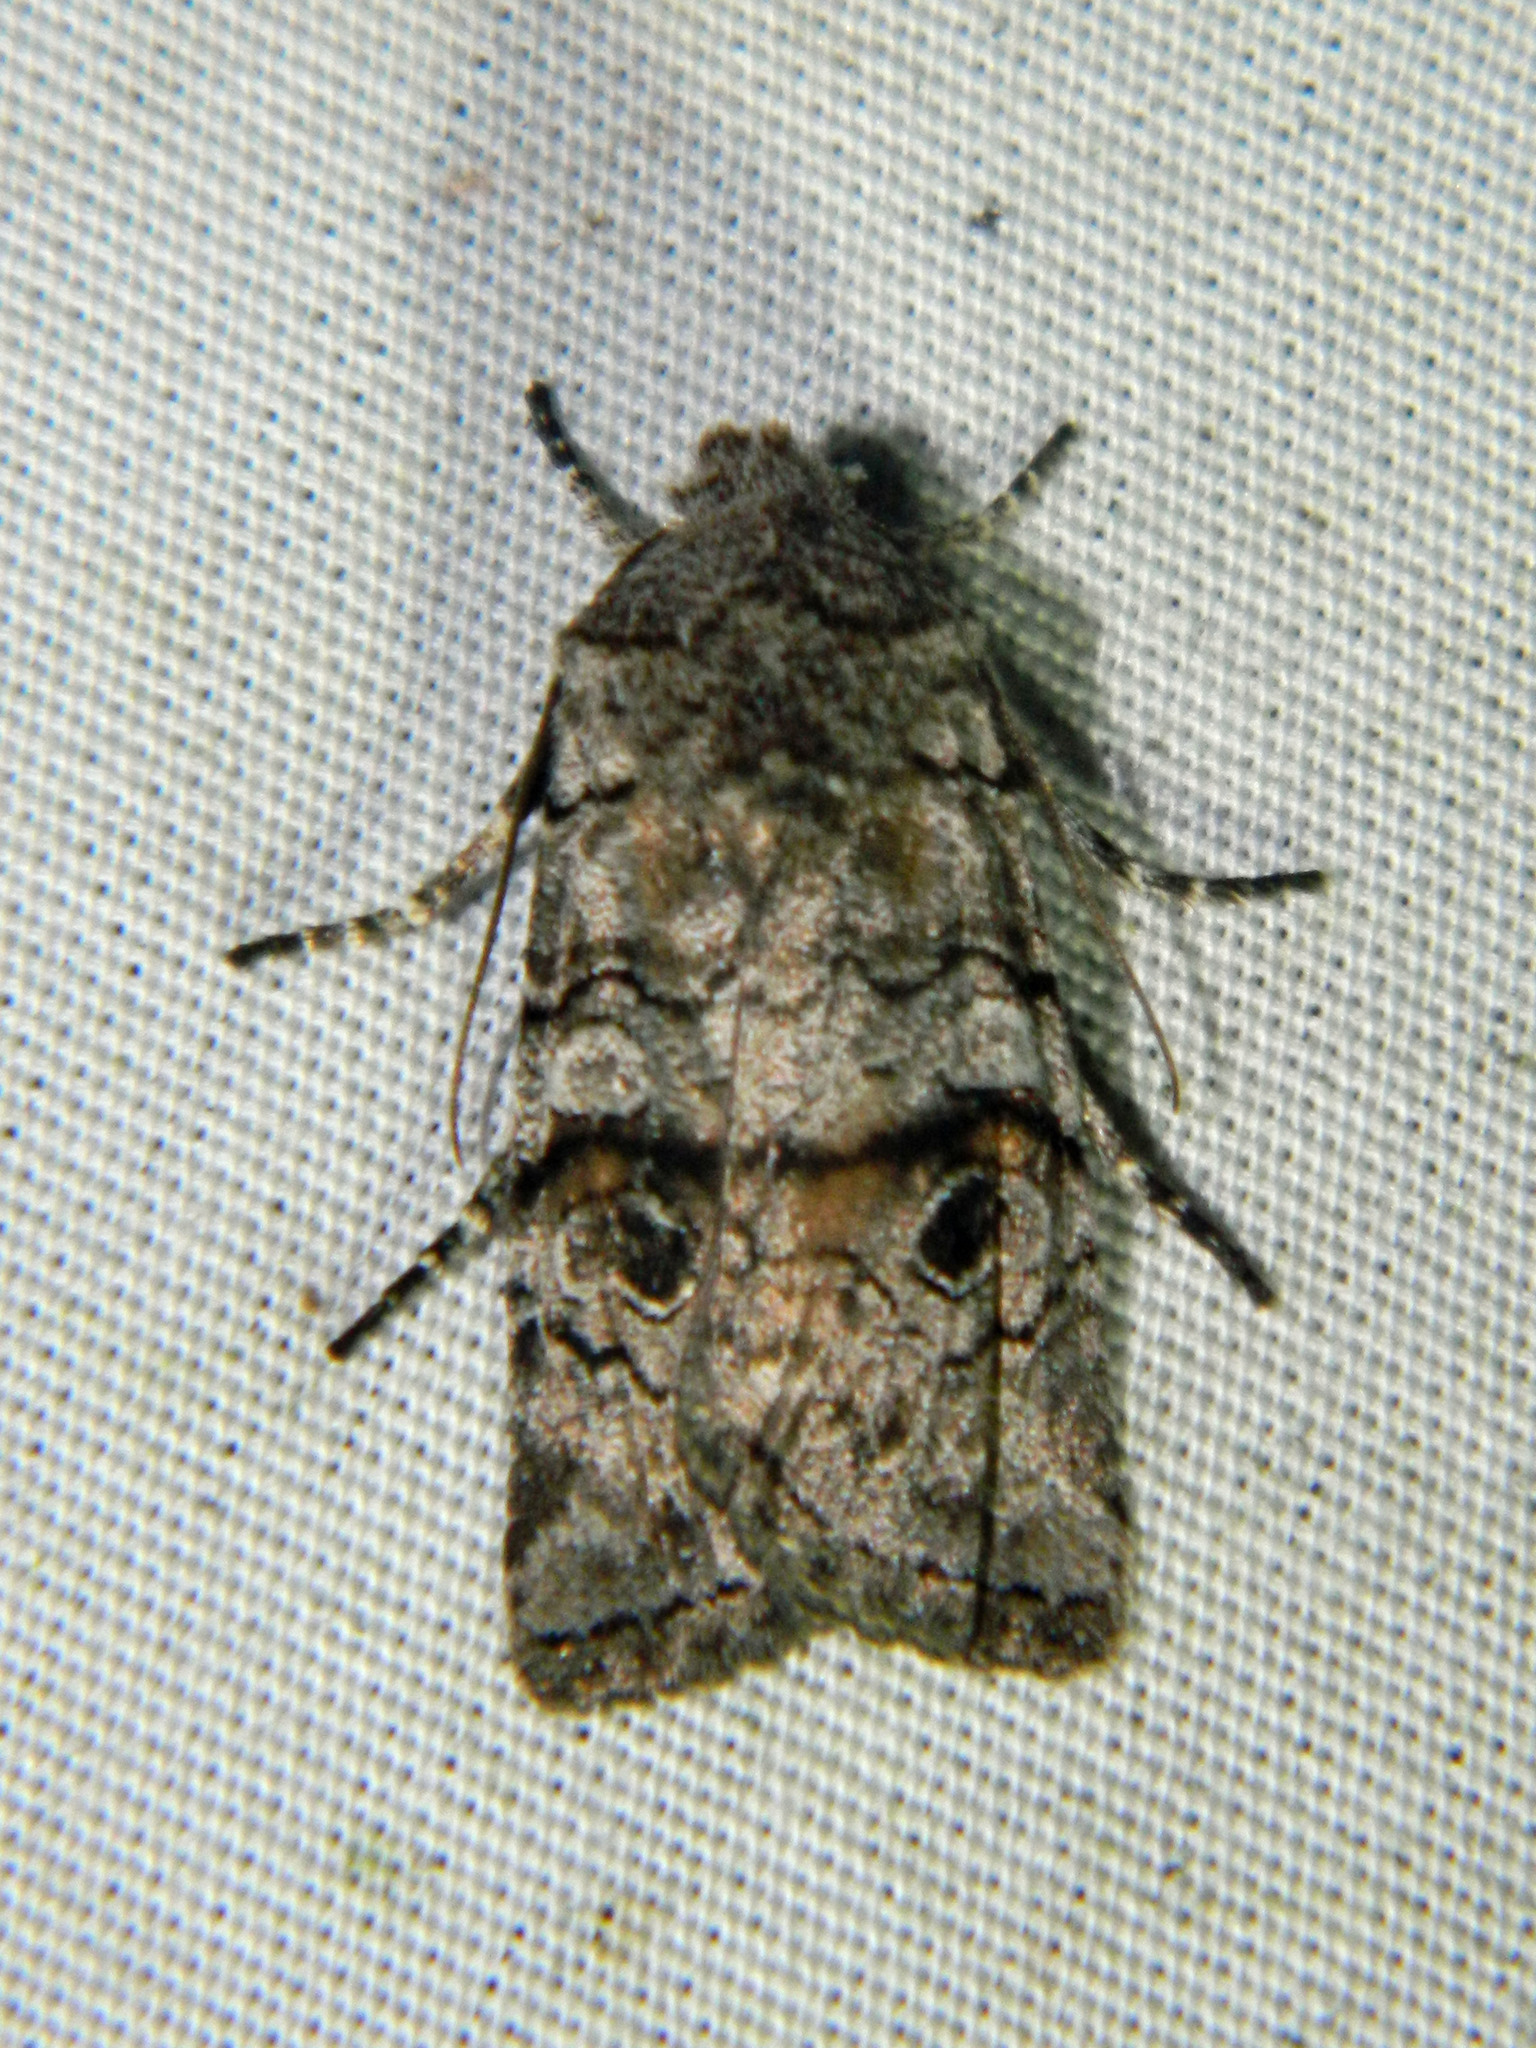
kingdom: Animalia
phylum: Arthropoda
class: Insecta
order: Lepidoptera
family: Noctuidae
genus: Litholomia
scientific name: Litholomia napaea
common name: False pinion moth
